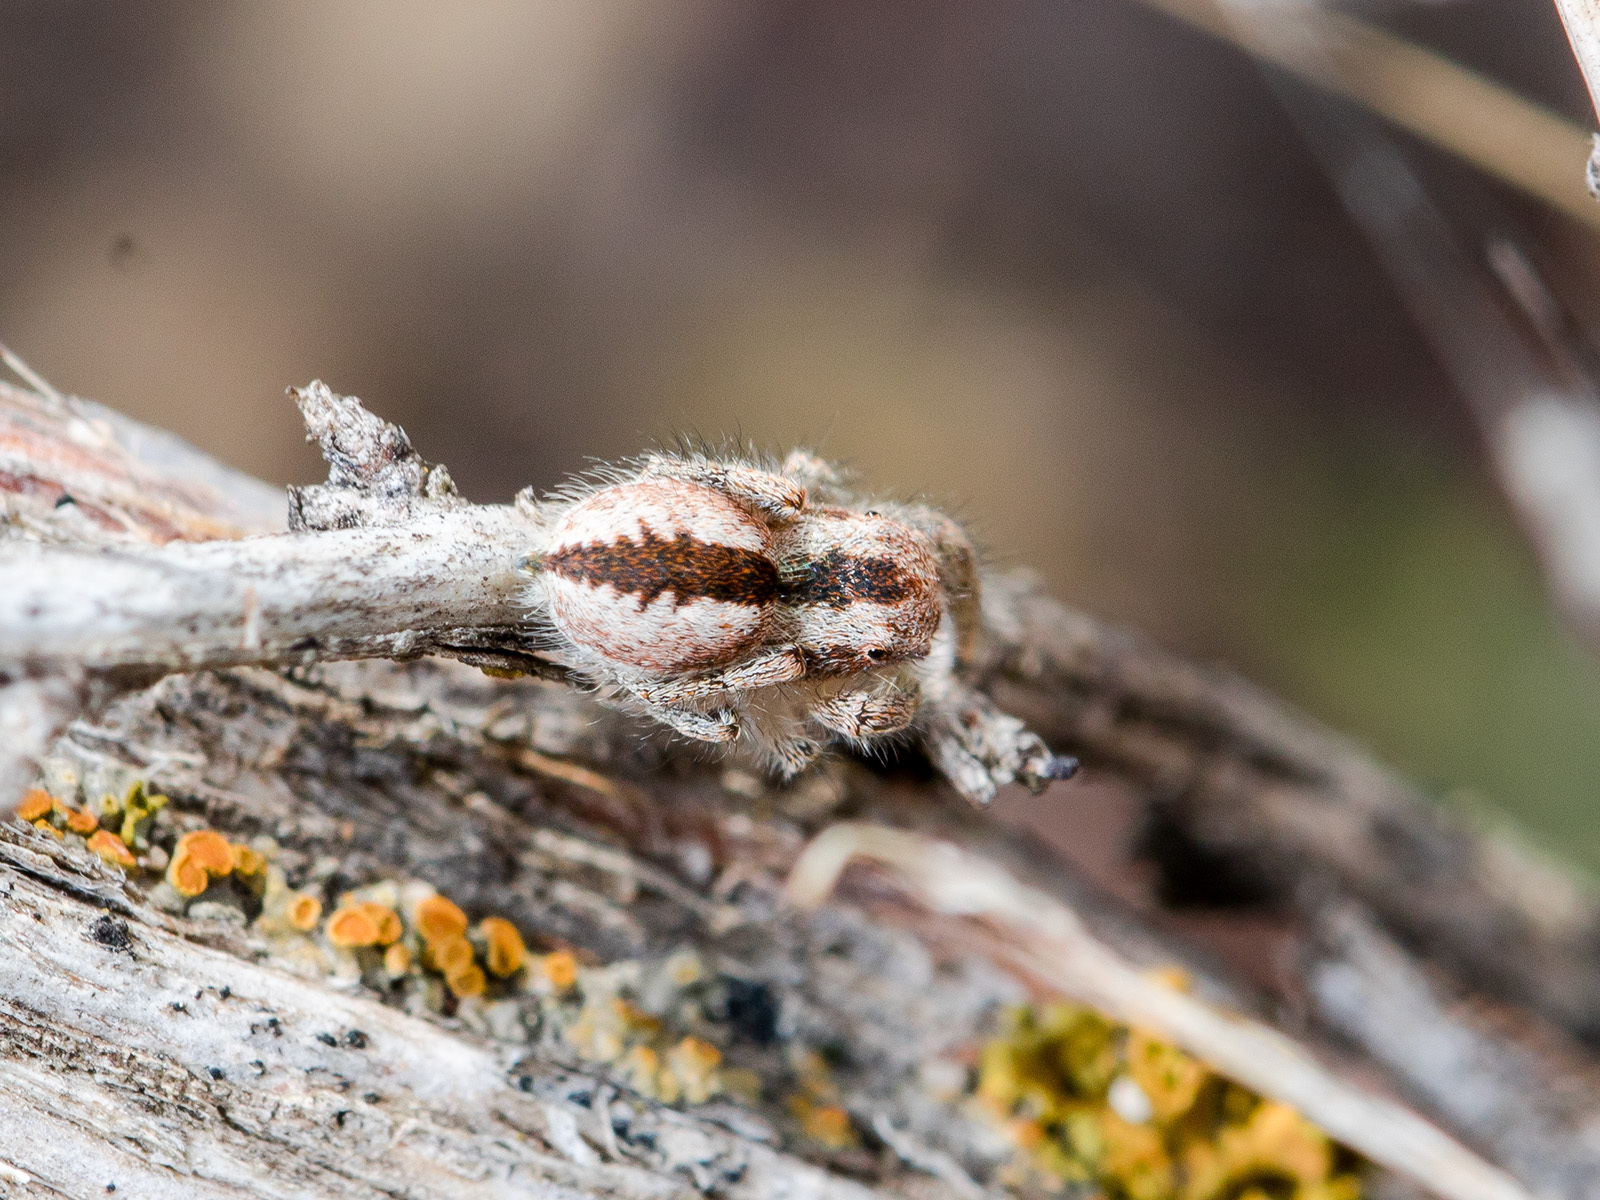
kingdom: Animalia
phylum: Arthropoda
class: Arachnida
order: Araneae
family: Salticidae
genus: Pseudomogrus
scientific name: Pseudomogrus vittatus
